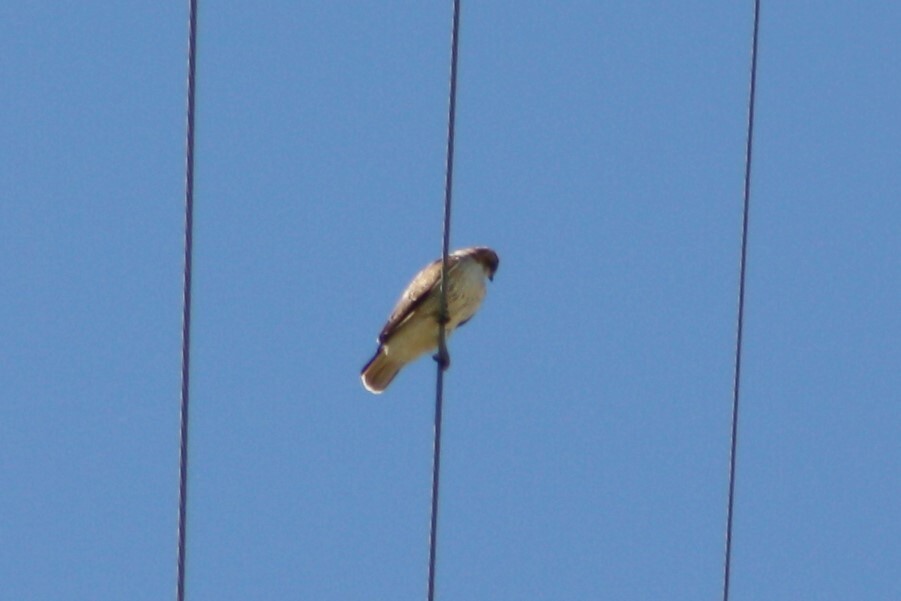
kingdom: Animalia
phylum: Chordata
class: Aves
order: Accipitriformes
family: Accipitridae
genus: Buteo
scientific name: Buteo jamaicensis
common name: Red-tailed hawk
